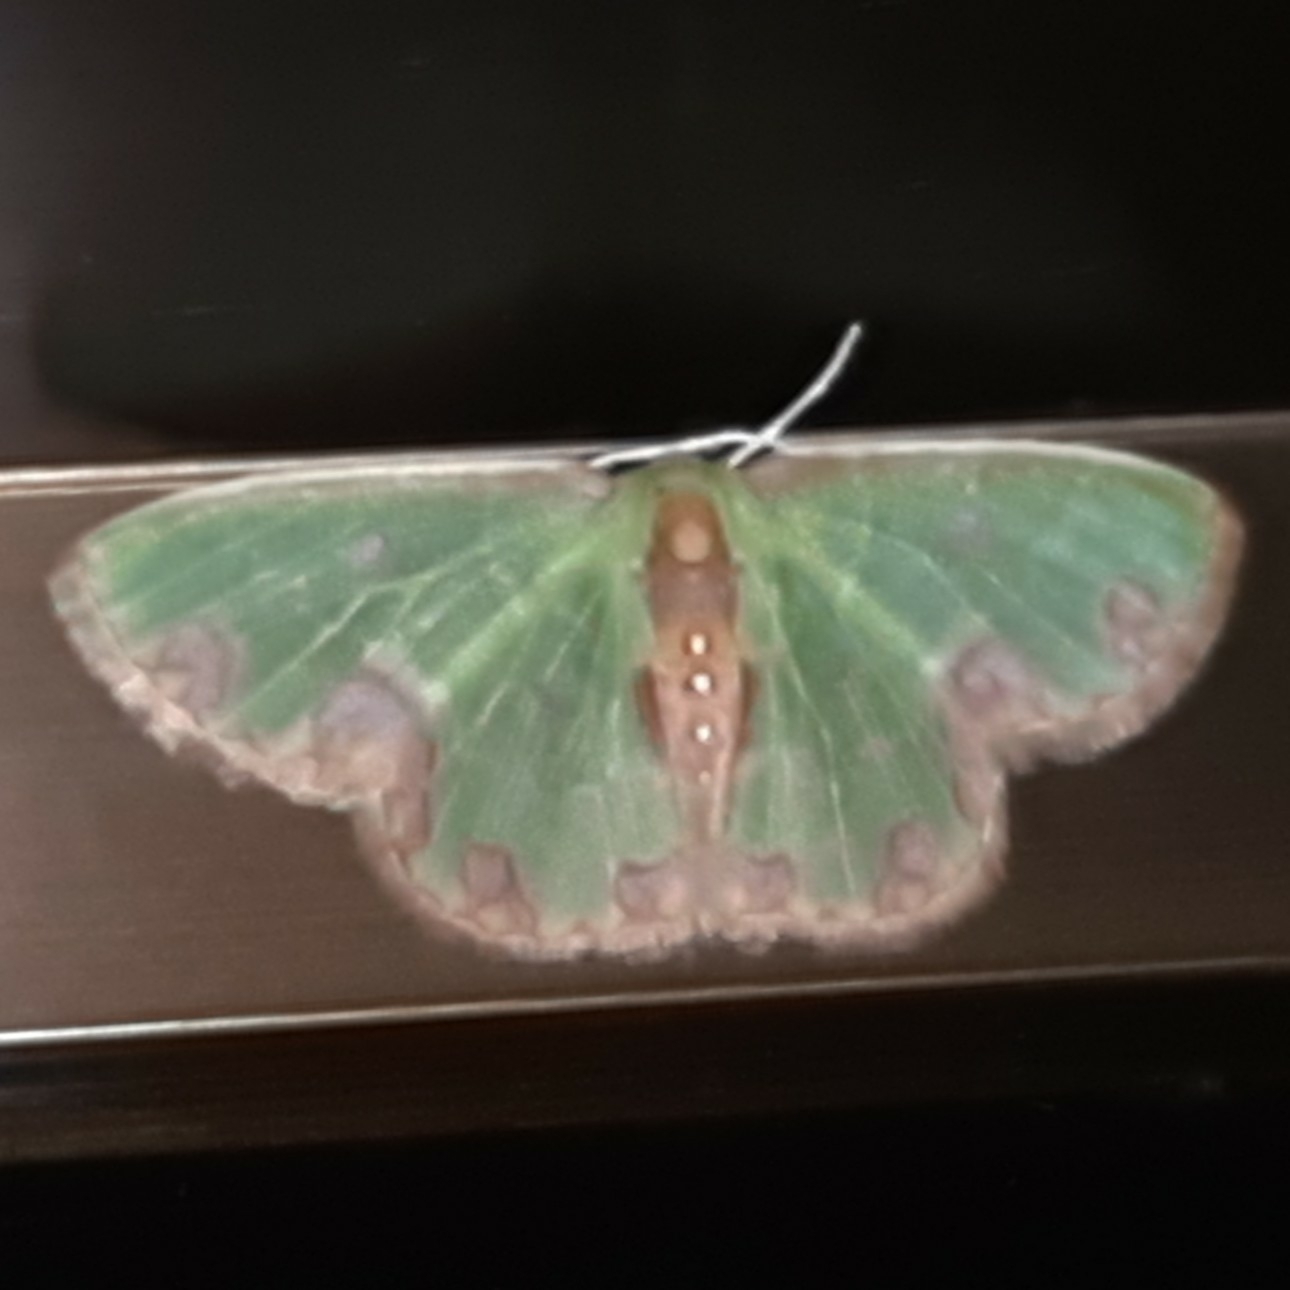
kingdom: Animalia
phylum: Arthropoda
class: Insecta
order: Lepidoptera
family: Geometridae
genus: Synchlora
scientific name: Synchlora gerularia
